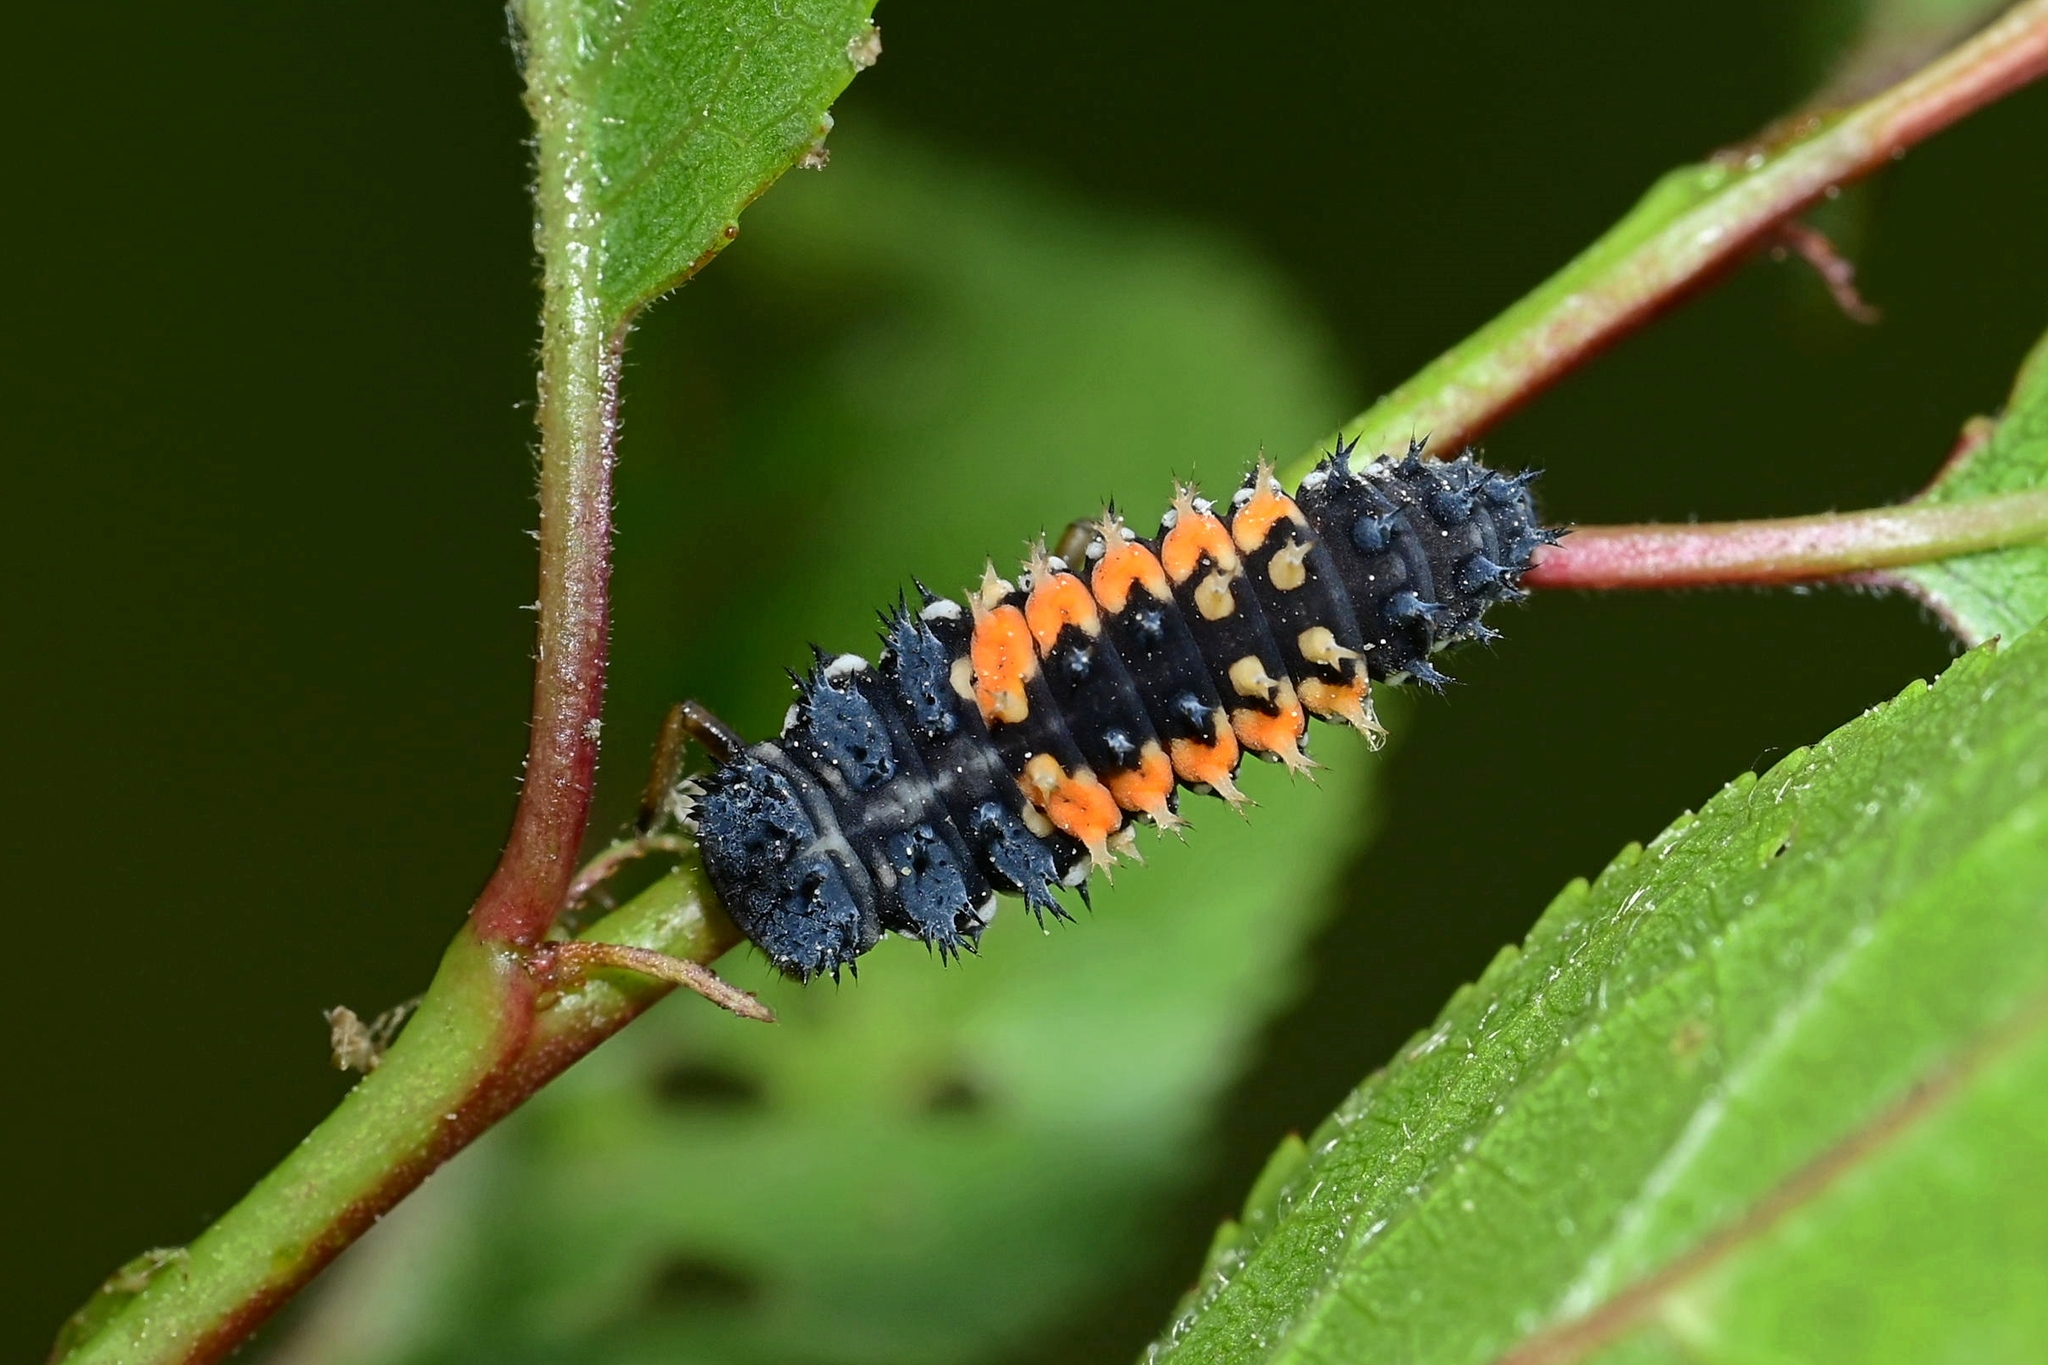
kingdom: Animalia
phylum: Arthropoda
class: Insecta
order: Coleoptera
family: Coccinellidae
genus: Harmonia
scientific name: Harmonia axyridis
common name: Harlequin ladybird
